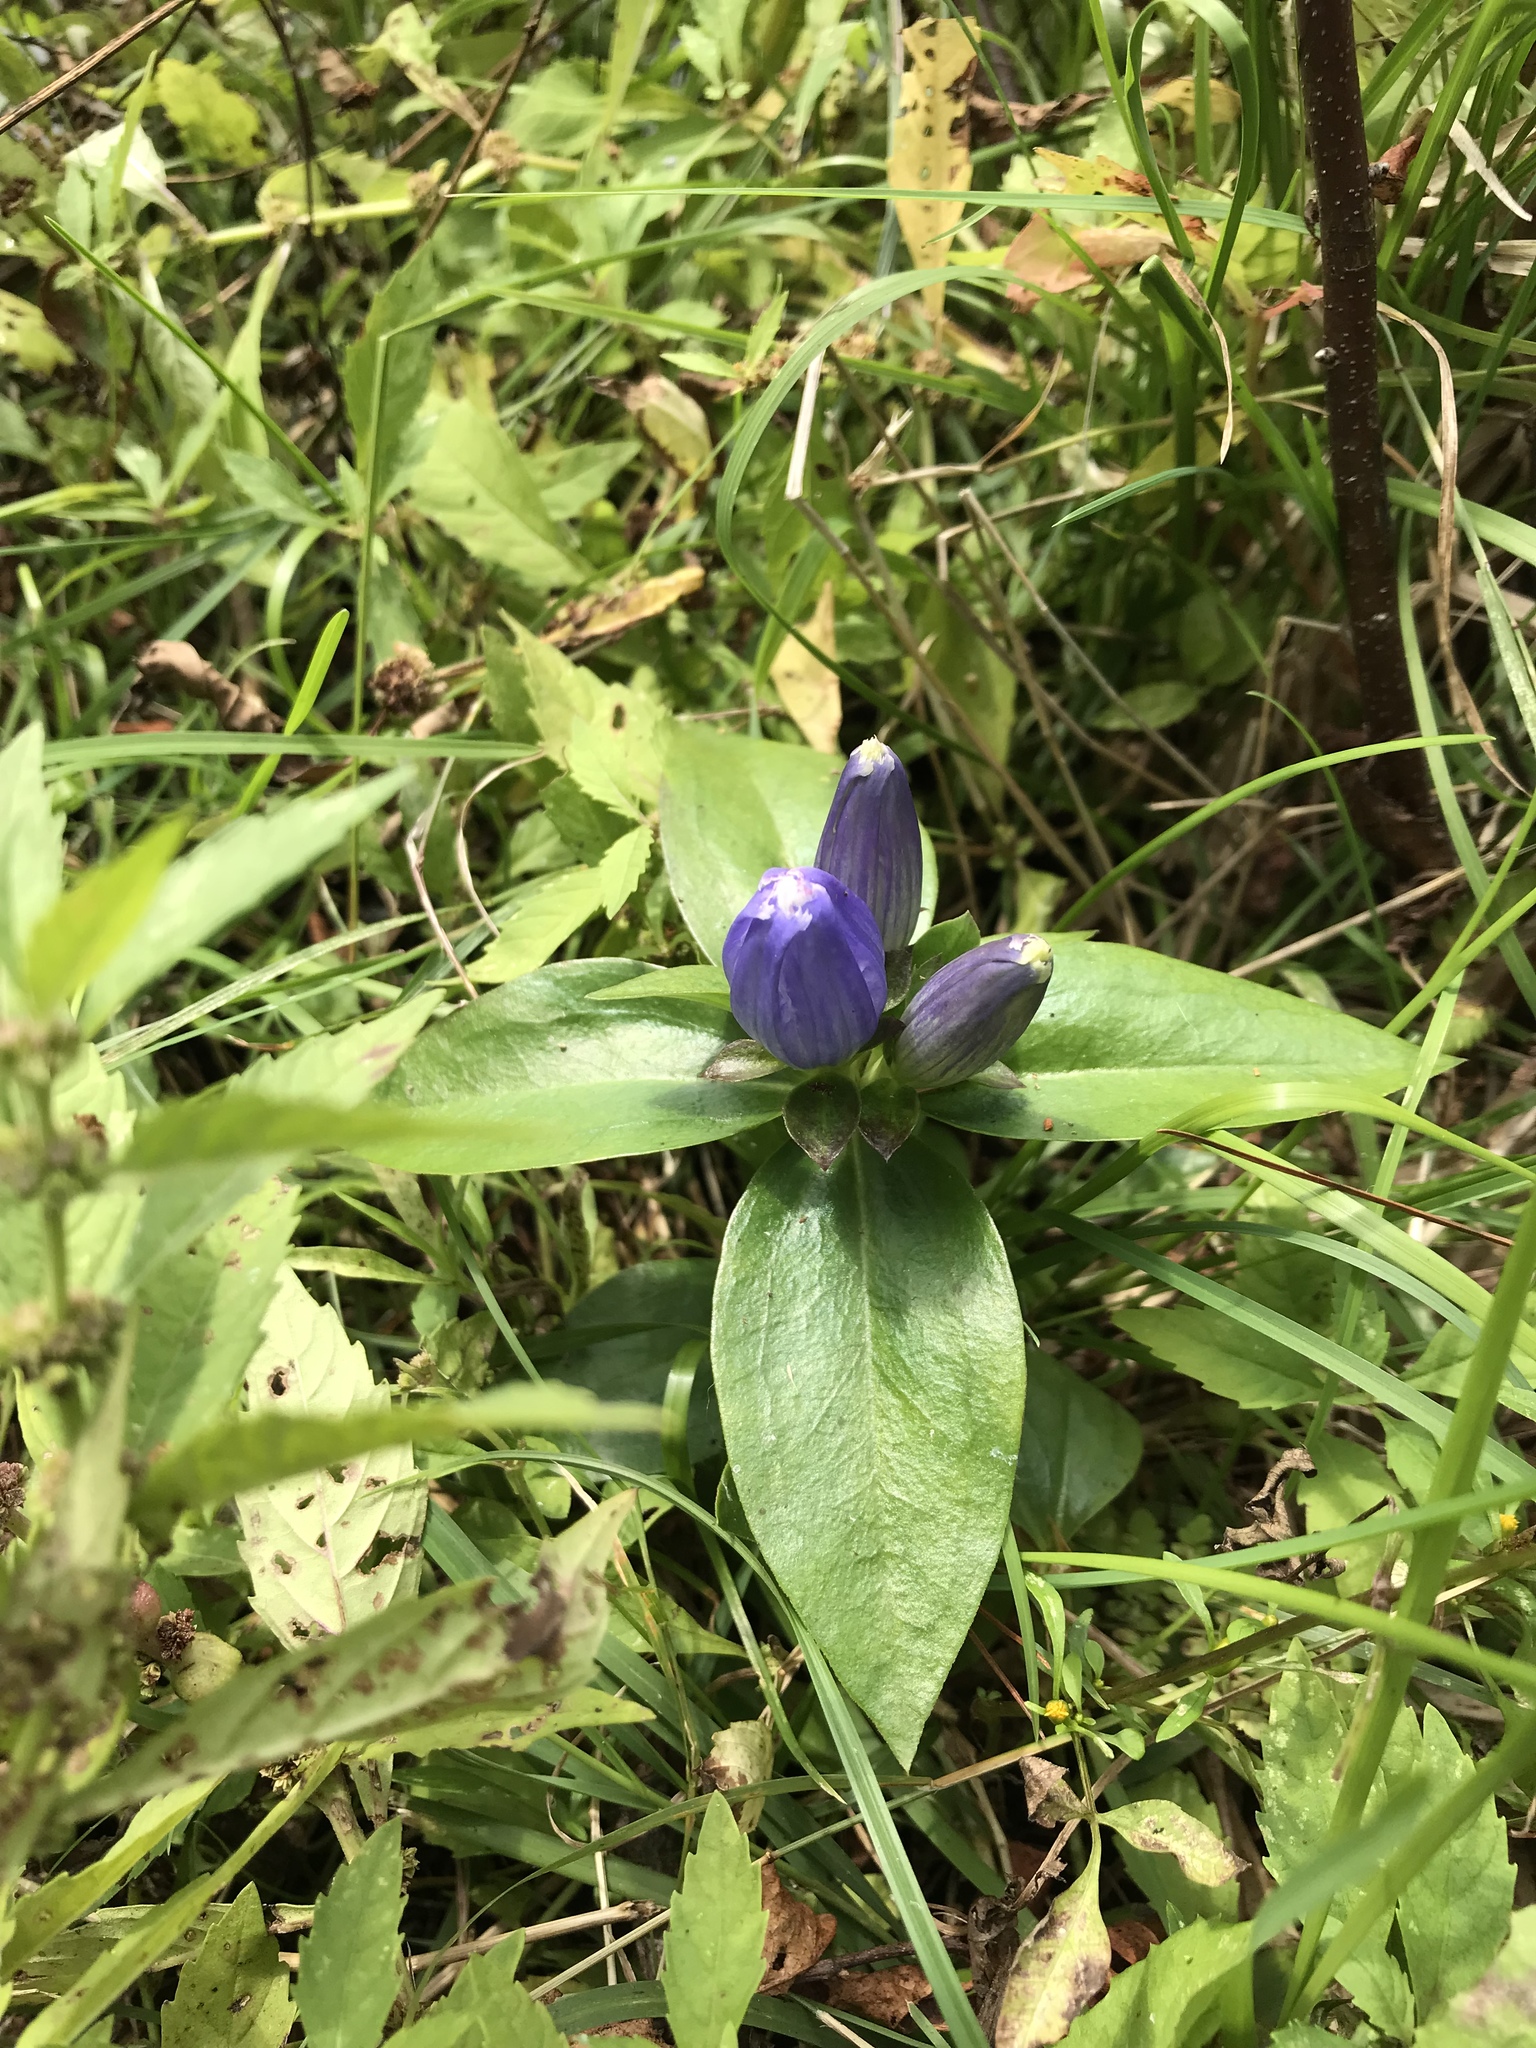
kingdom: Plantae
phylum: Tracheophyta
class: Magnoliopsida
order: Gentianales
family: Gentianaceae
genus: Gentiana
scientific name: Gentiana andrewsii
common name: Bottle gentian
